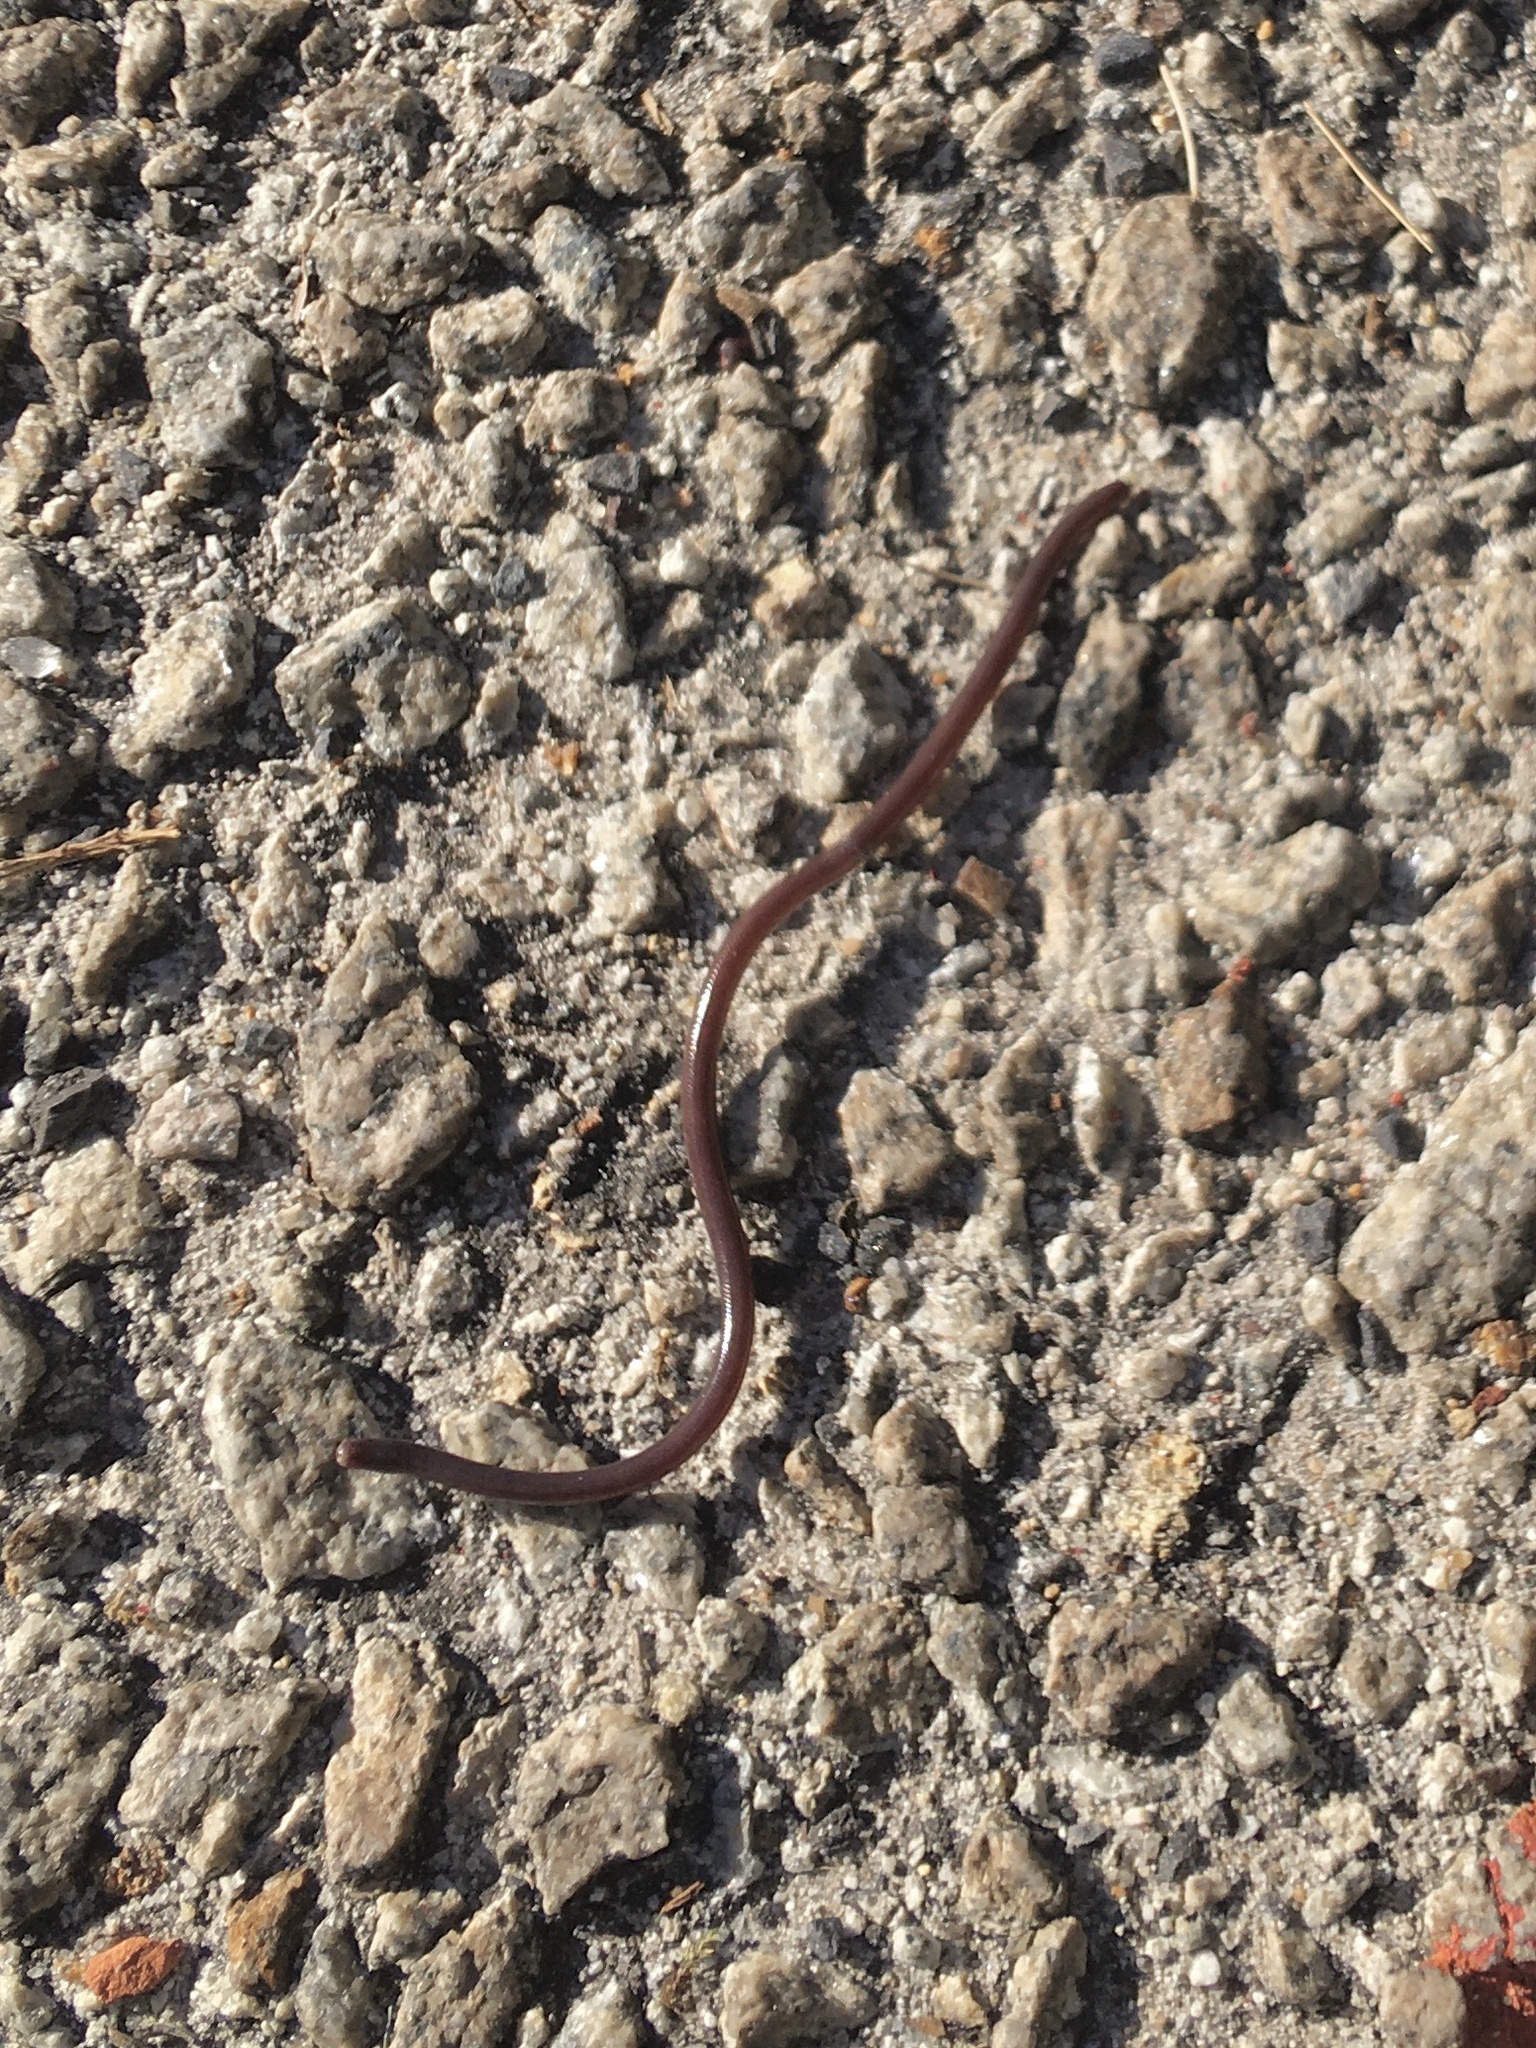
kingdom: Animalia
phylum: Chordata
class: Squamata
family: Typhlopidae
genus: Indotyphlops
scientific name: Indotyphlops braminus
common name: Brahminy blindsnake
